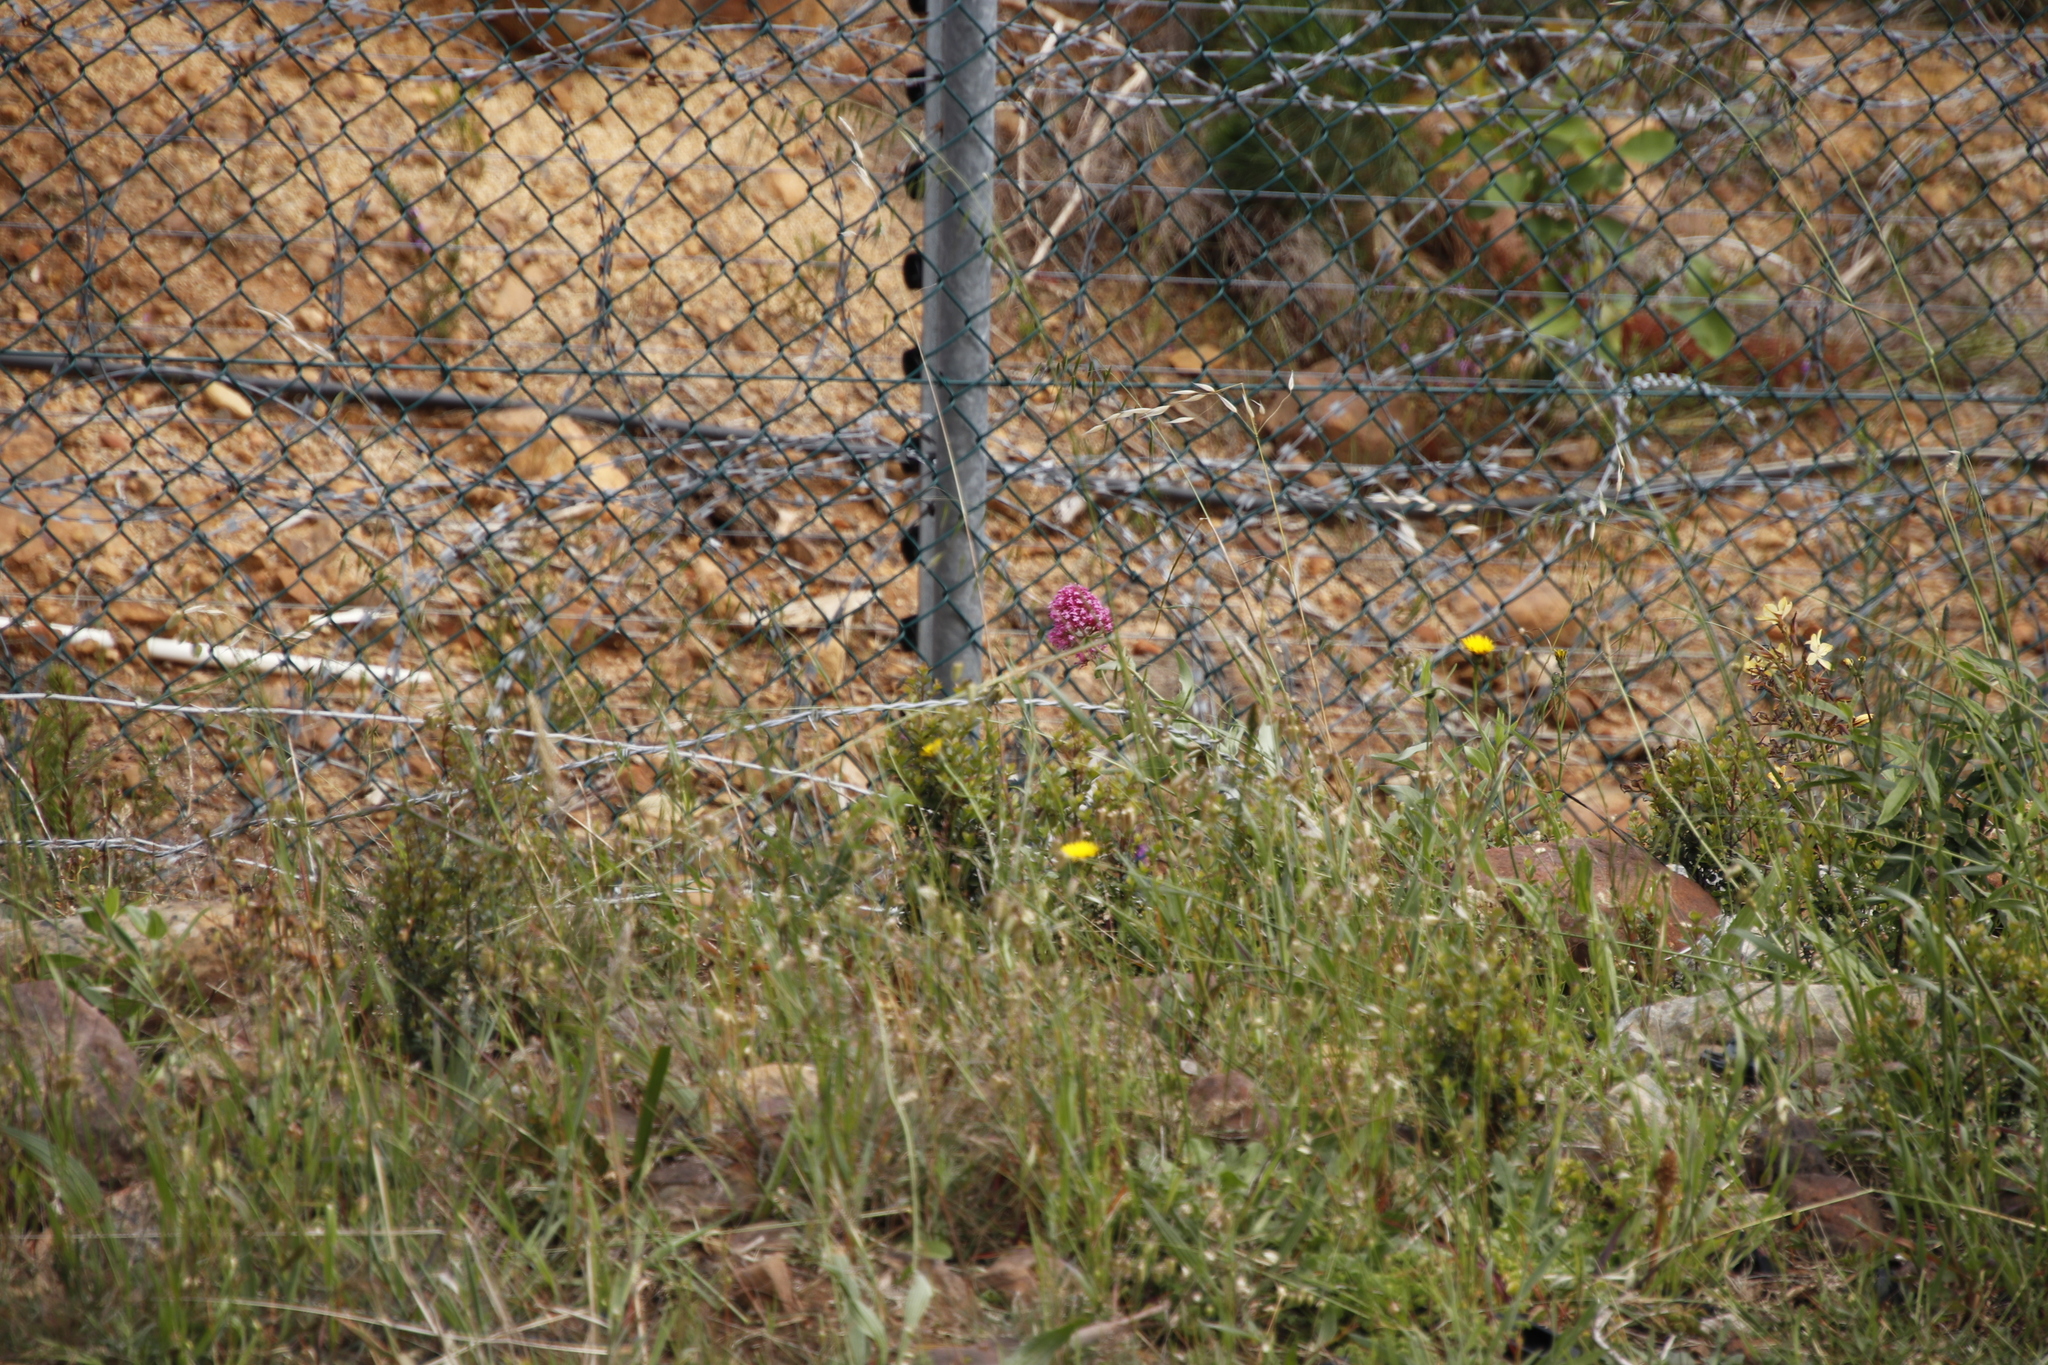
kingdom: Plantae
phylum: Tracheophyta
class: Magnoliopsida
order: Dipsacales
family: Caprifoliaceae
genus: Centranthus
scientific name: Centranthus ruber
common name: Red valerian
